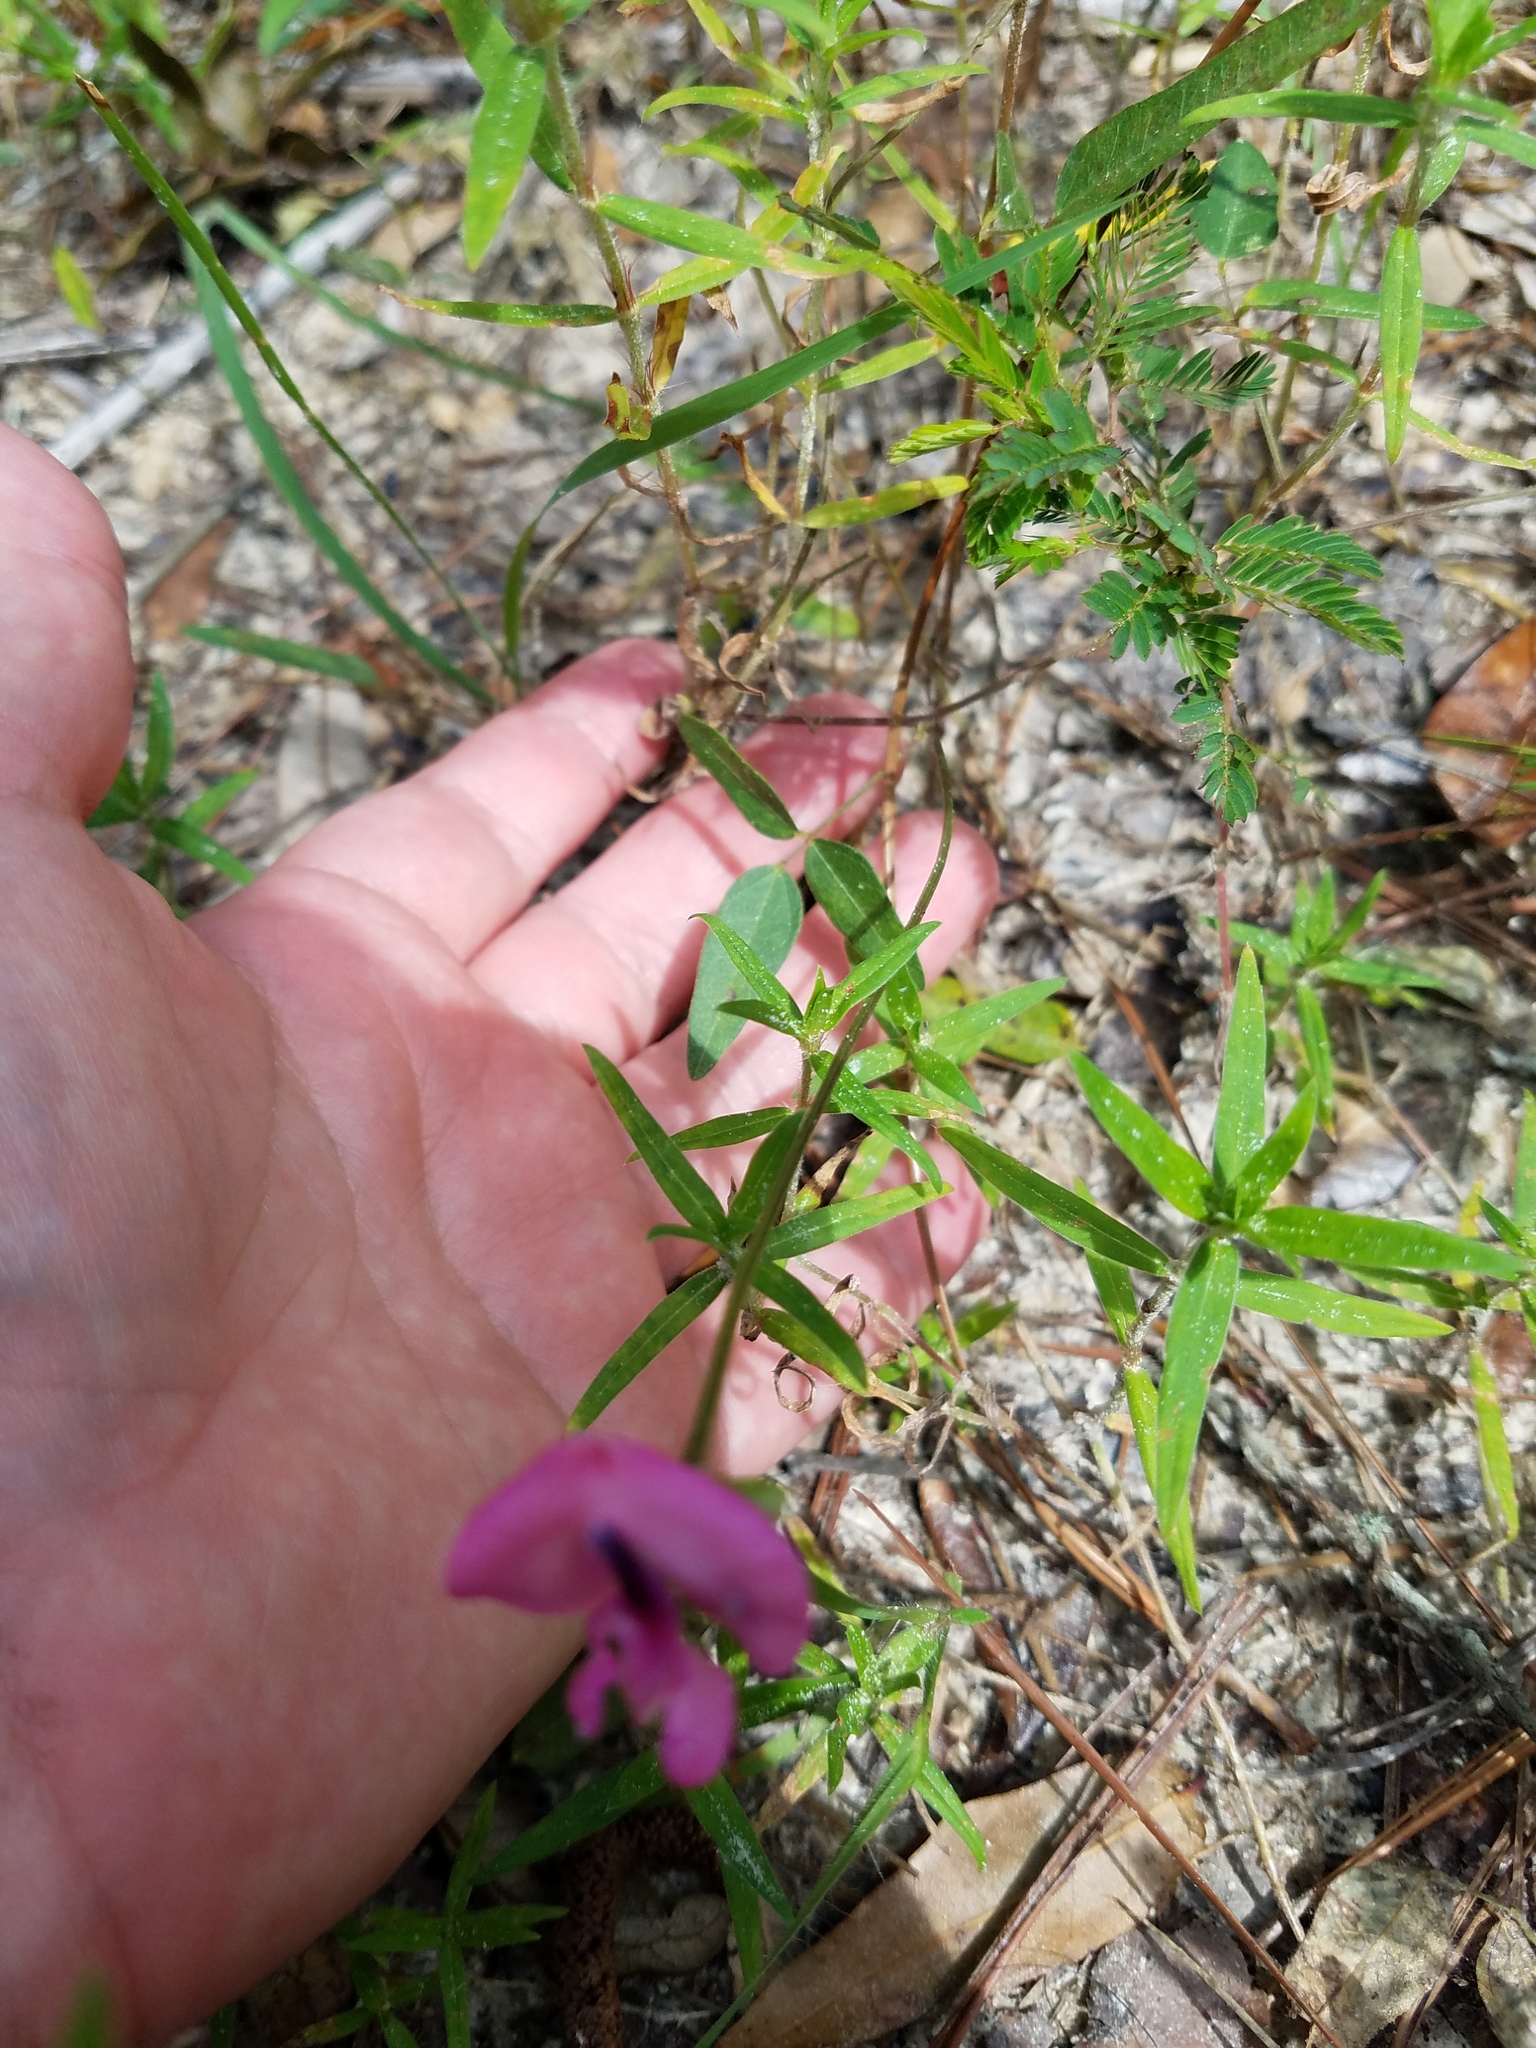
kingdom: Plantae
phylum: Tracheophyta
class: Magnoliopsida
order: Fabales
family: Fabaceae
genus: Strophostyles
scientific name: Strophostyles umbellata
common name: Perennial wild bean
